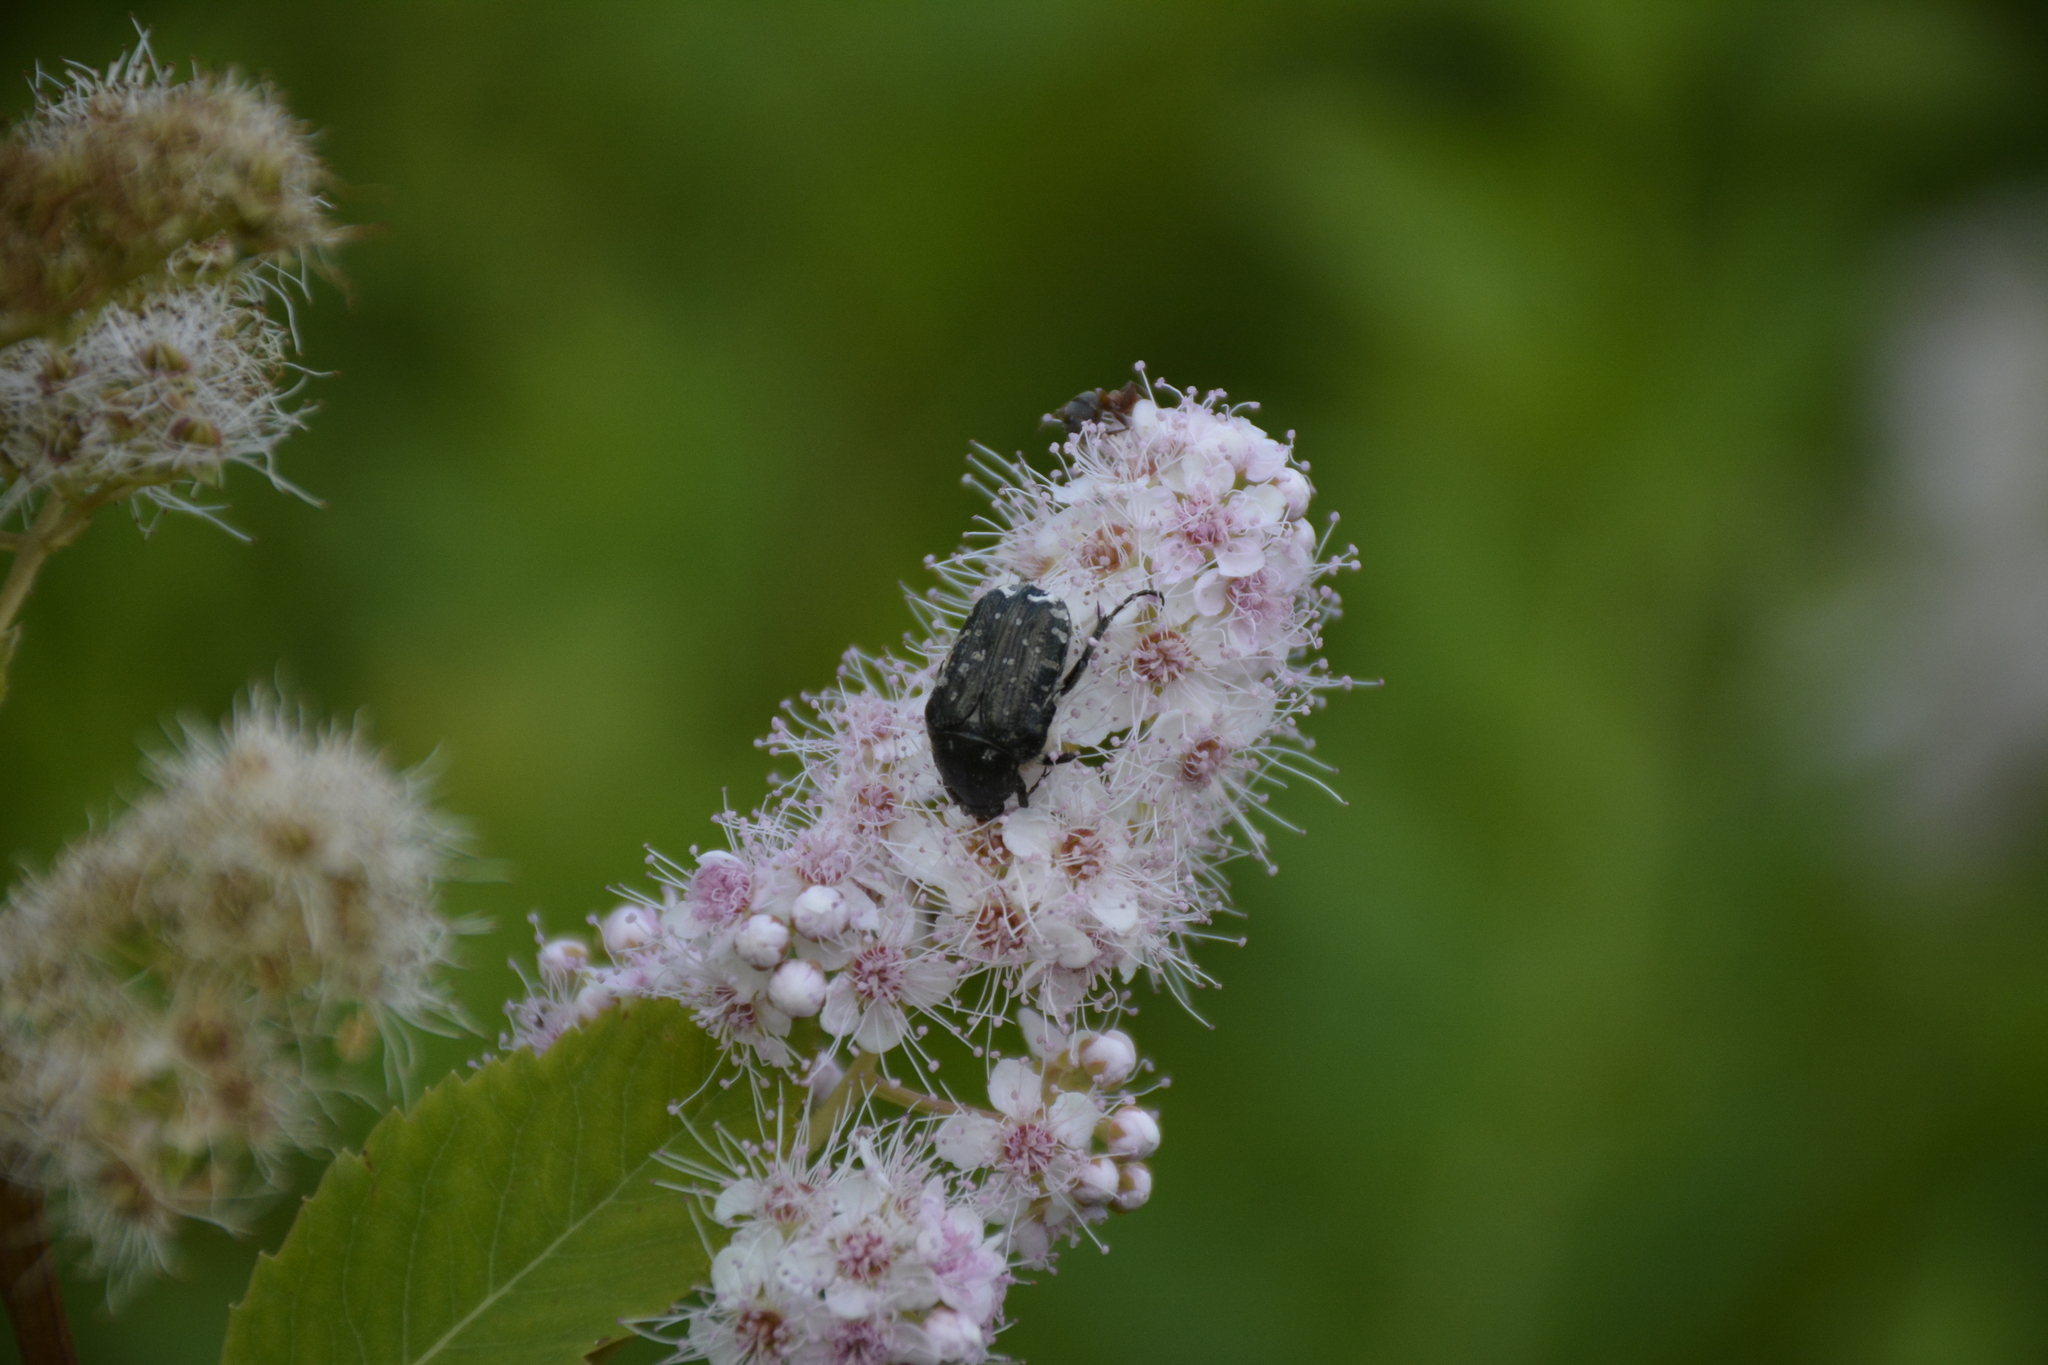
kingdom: Animalia
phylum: Arthropoda
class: Insecta
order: Coleoptera
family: Scarabaeidae
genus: Oxythyrea
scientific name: Oxythyrea funesta
